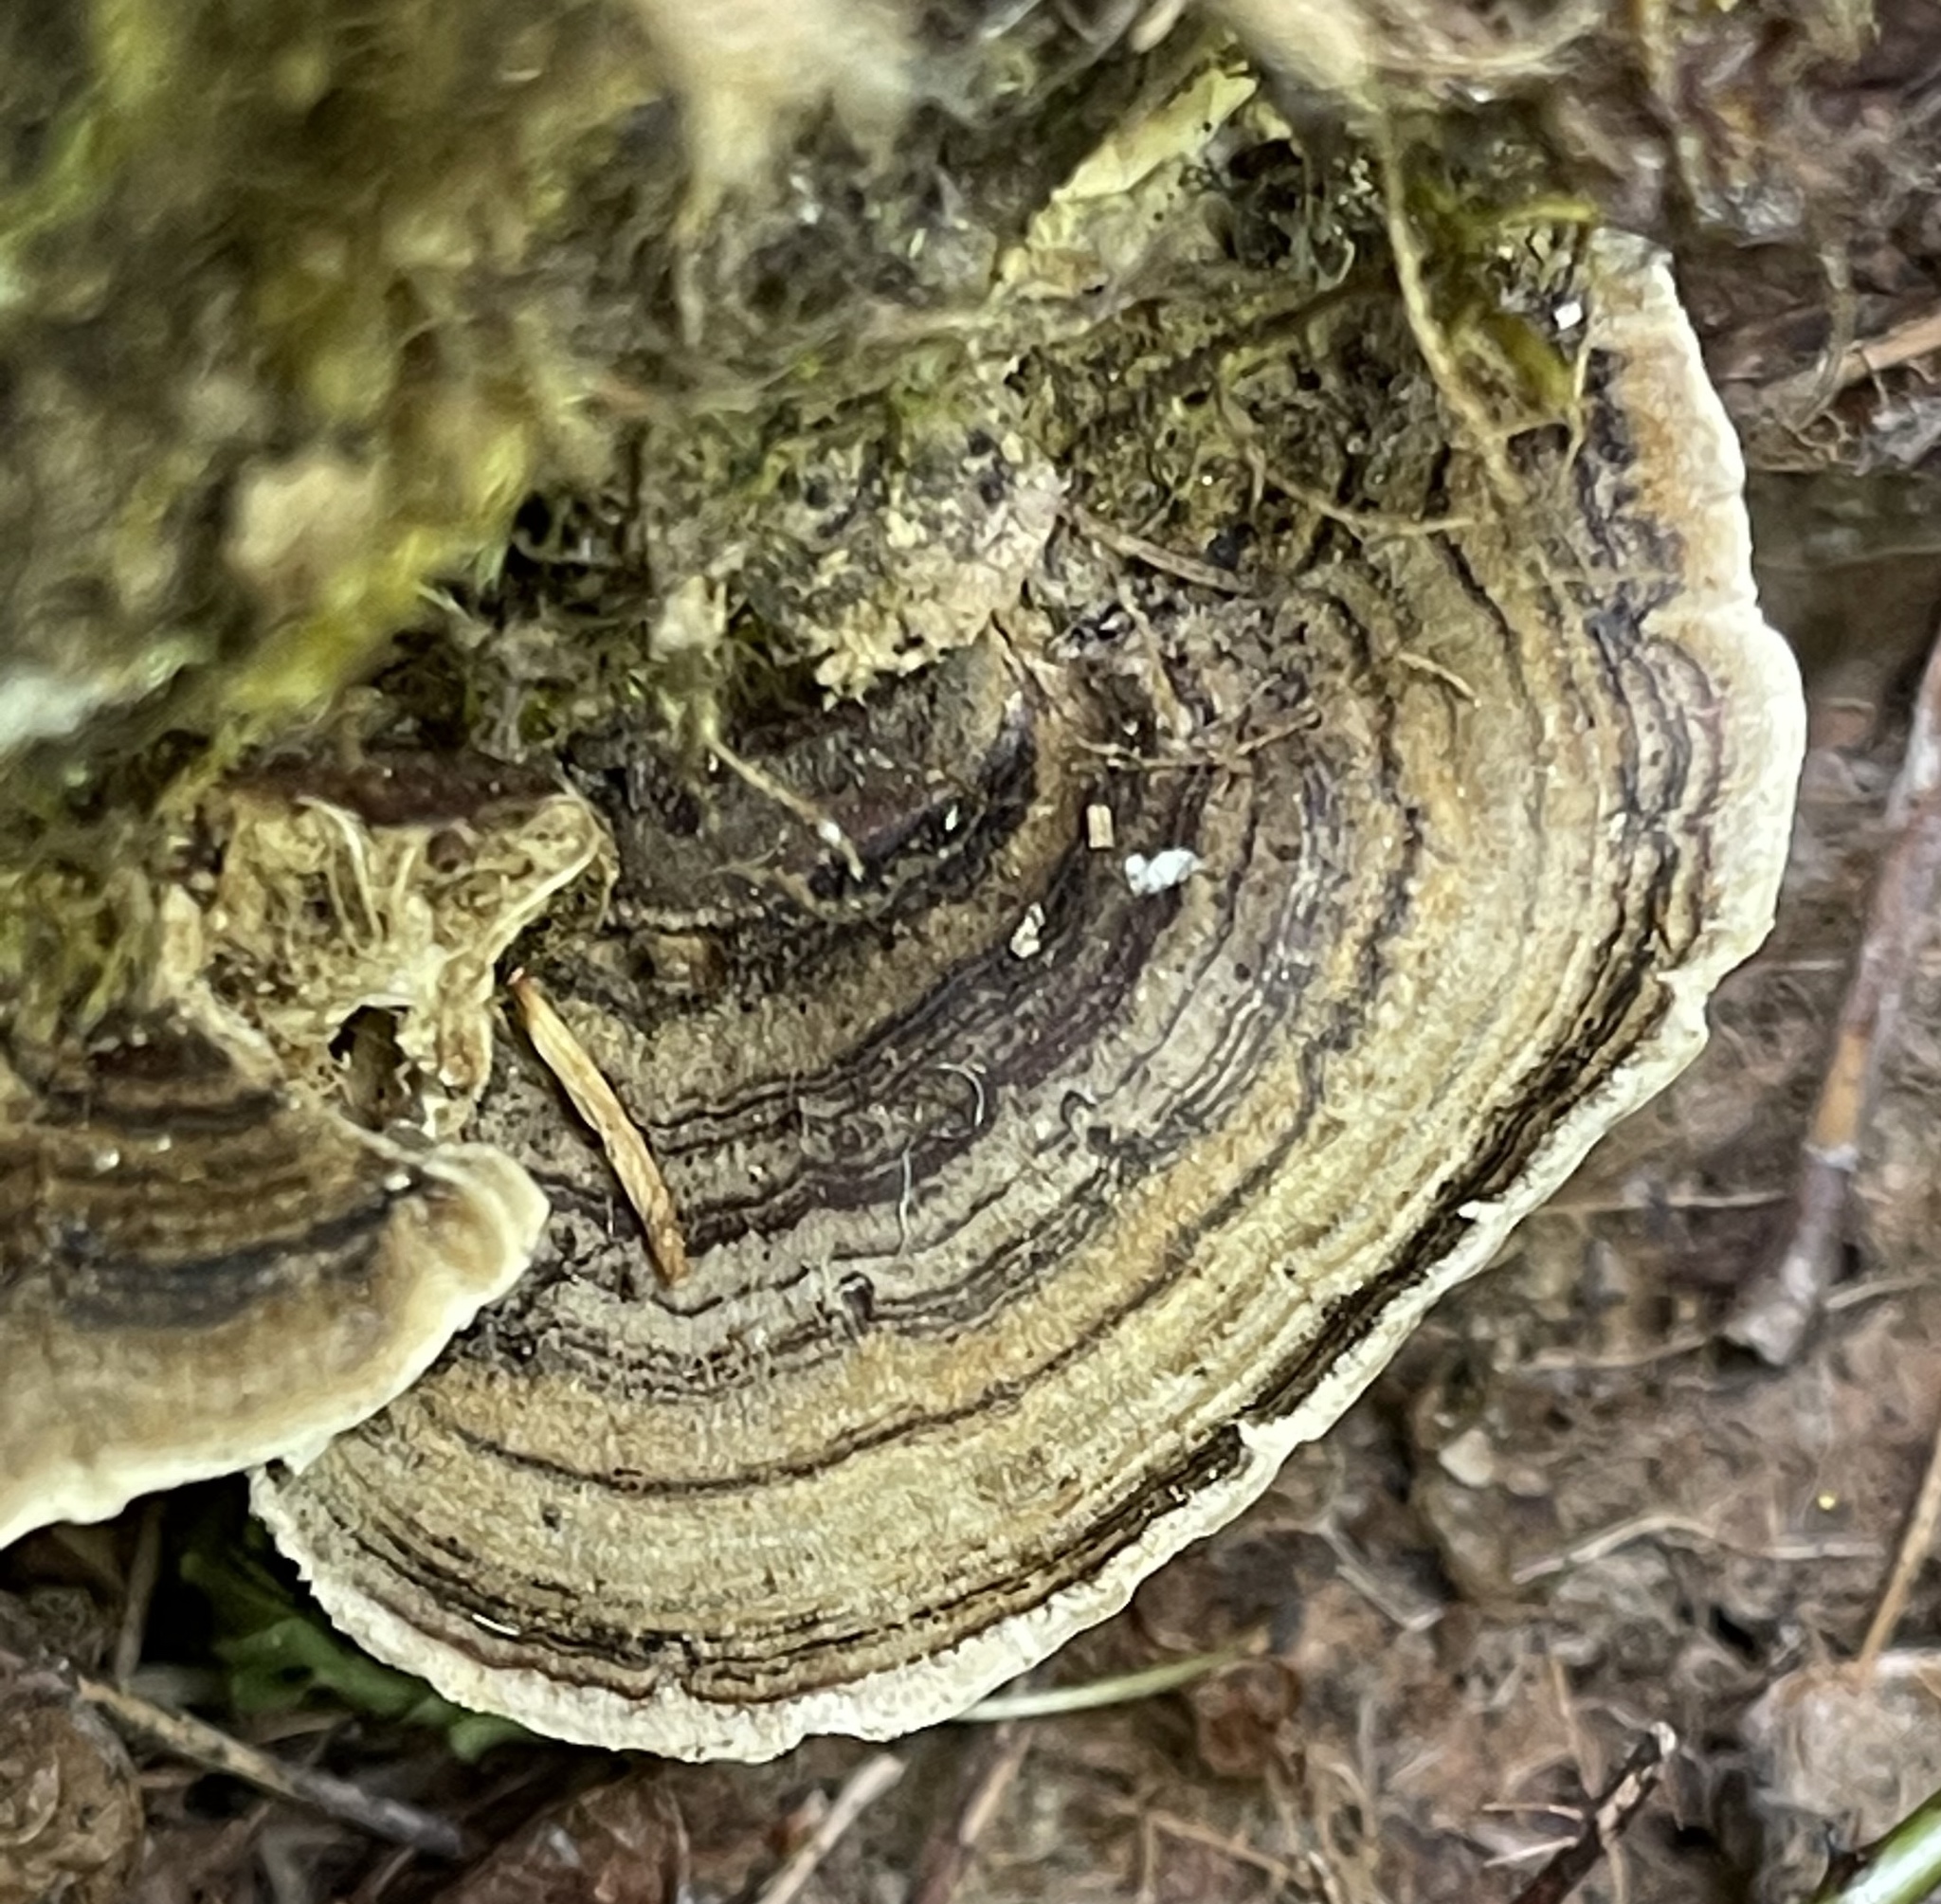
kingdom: Fungi
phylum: Basidiomycota
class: Agaricomycetes
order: Polyporales
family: Polyporaceae
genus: Trametes
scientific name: Trametes versicolor
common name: Turkeytail
